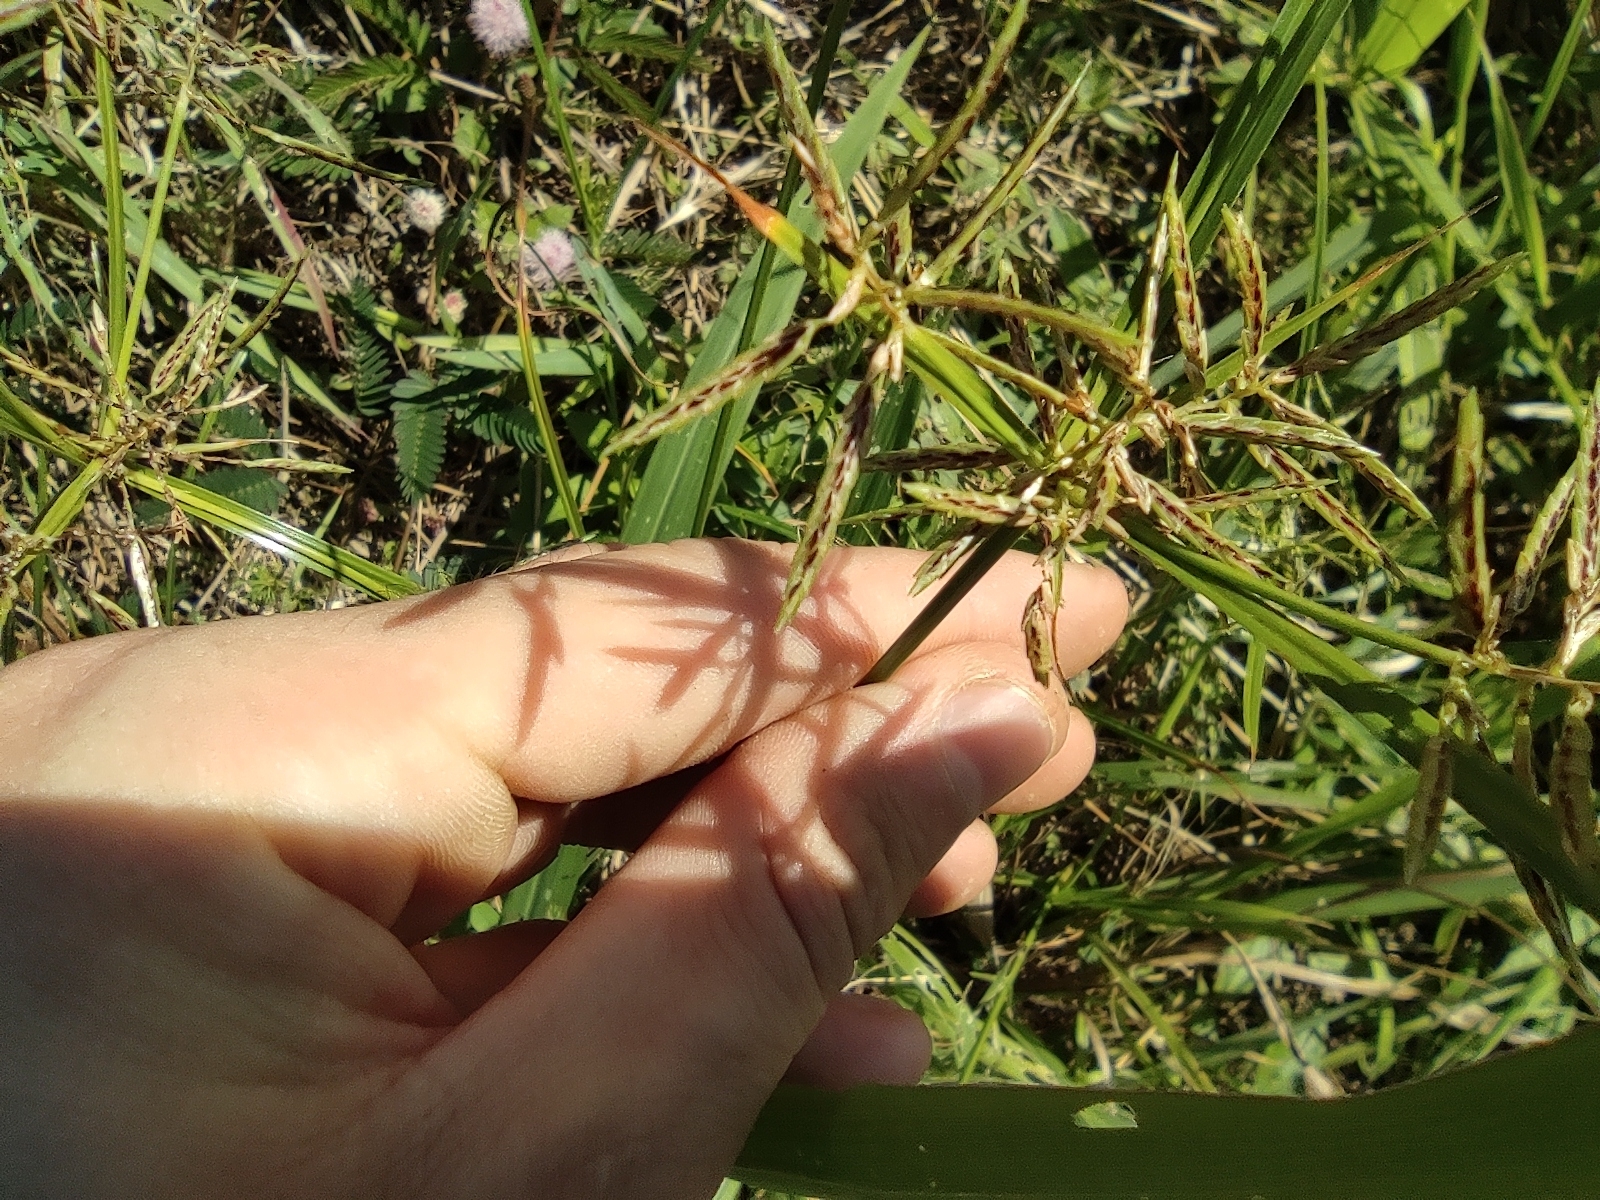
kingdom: Plantae
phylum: Tracheophyta
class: Liliopsida
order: Poales
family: Cyperaceae
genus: Cyperus
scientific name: Cyperus sphacelatus
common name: Roadside flatsedge
